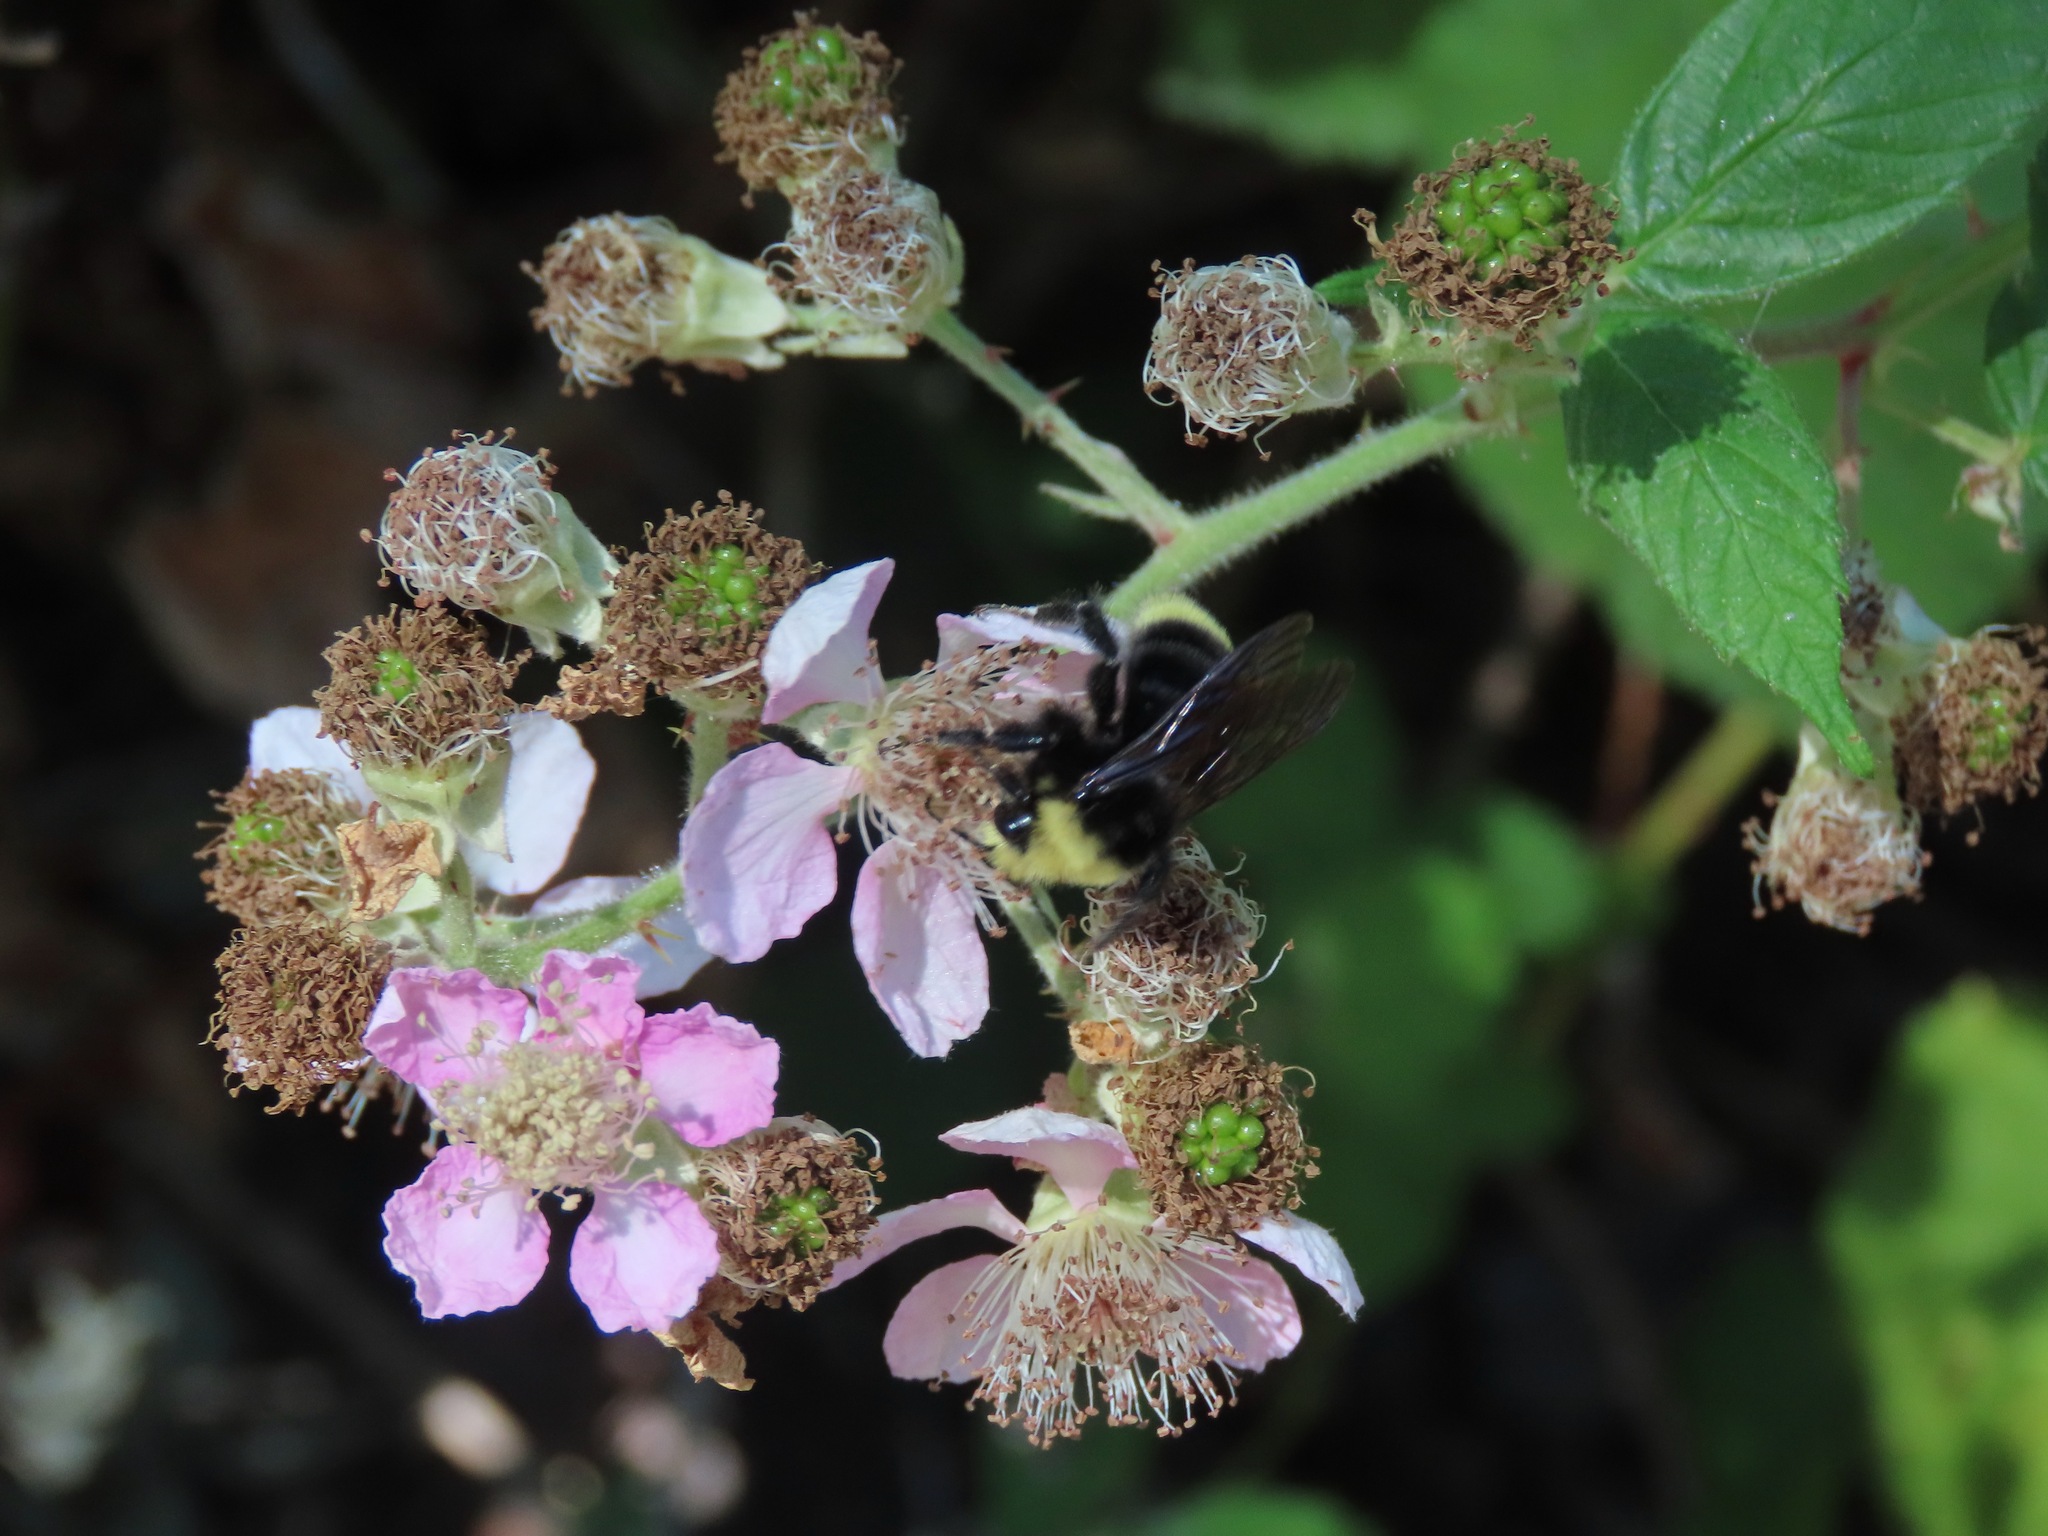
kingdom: Animalia
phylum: Arthropoda
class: Insecta
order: Hymenoptera
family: Apidae
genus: Bombus
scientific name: Bombus vosnesenskii
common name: Vosnesensky bumble bee
